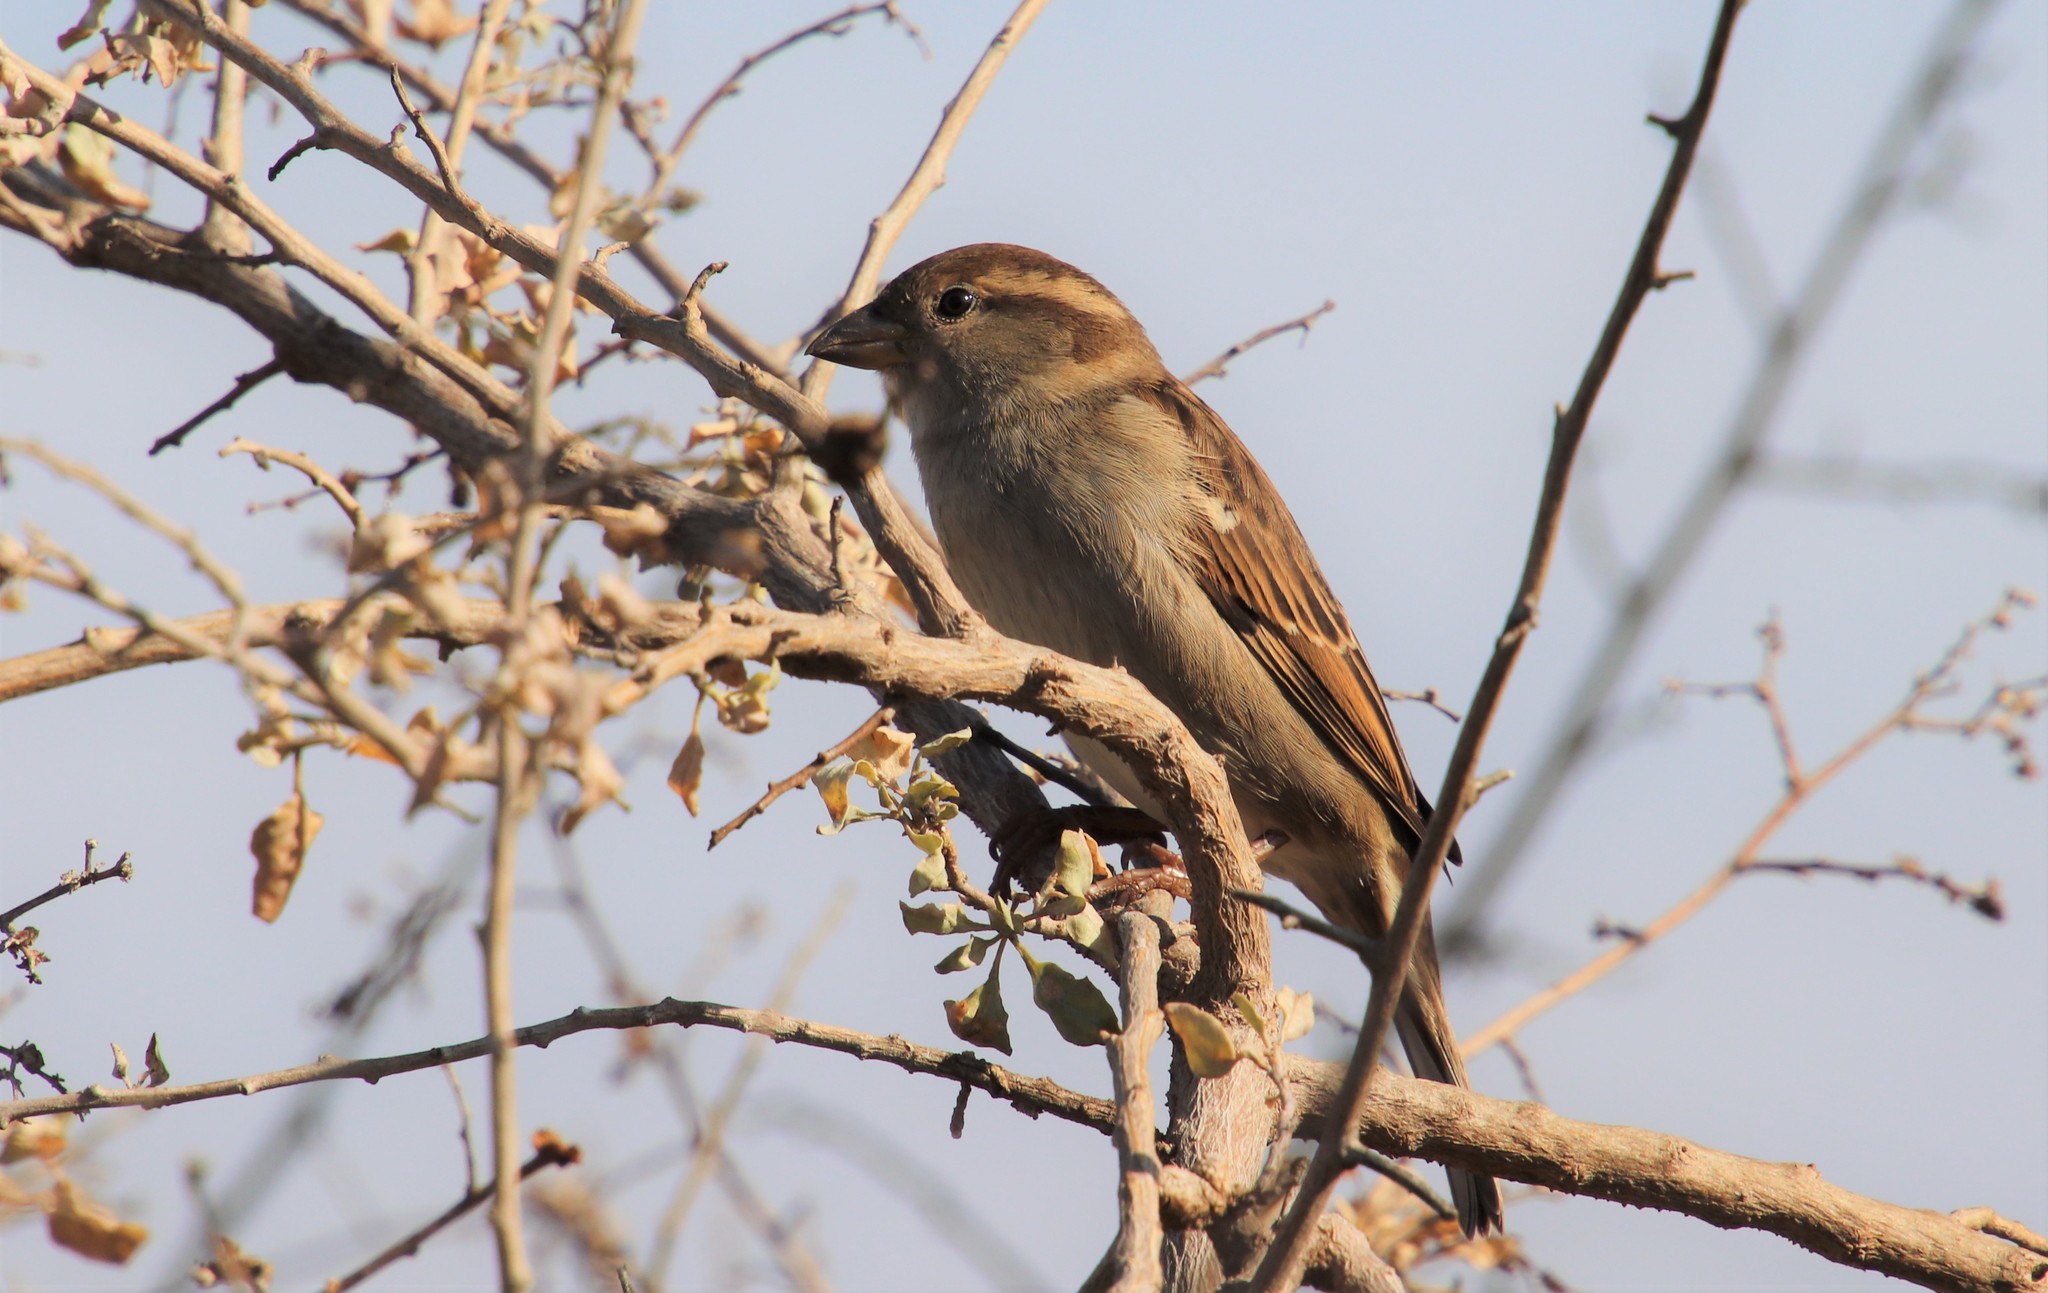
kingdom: Animalia
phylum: Chordata
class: Aves
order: Passeriformes
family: Passeridae
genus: Passer
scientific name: Passer domesticus
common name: House sparrow
